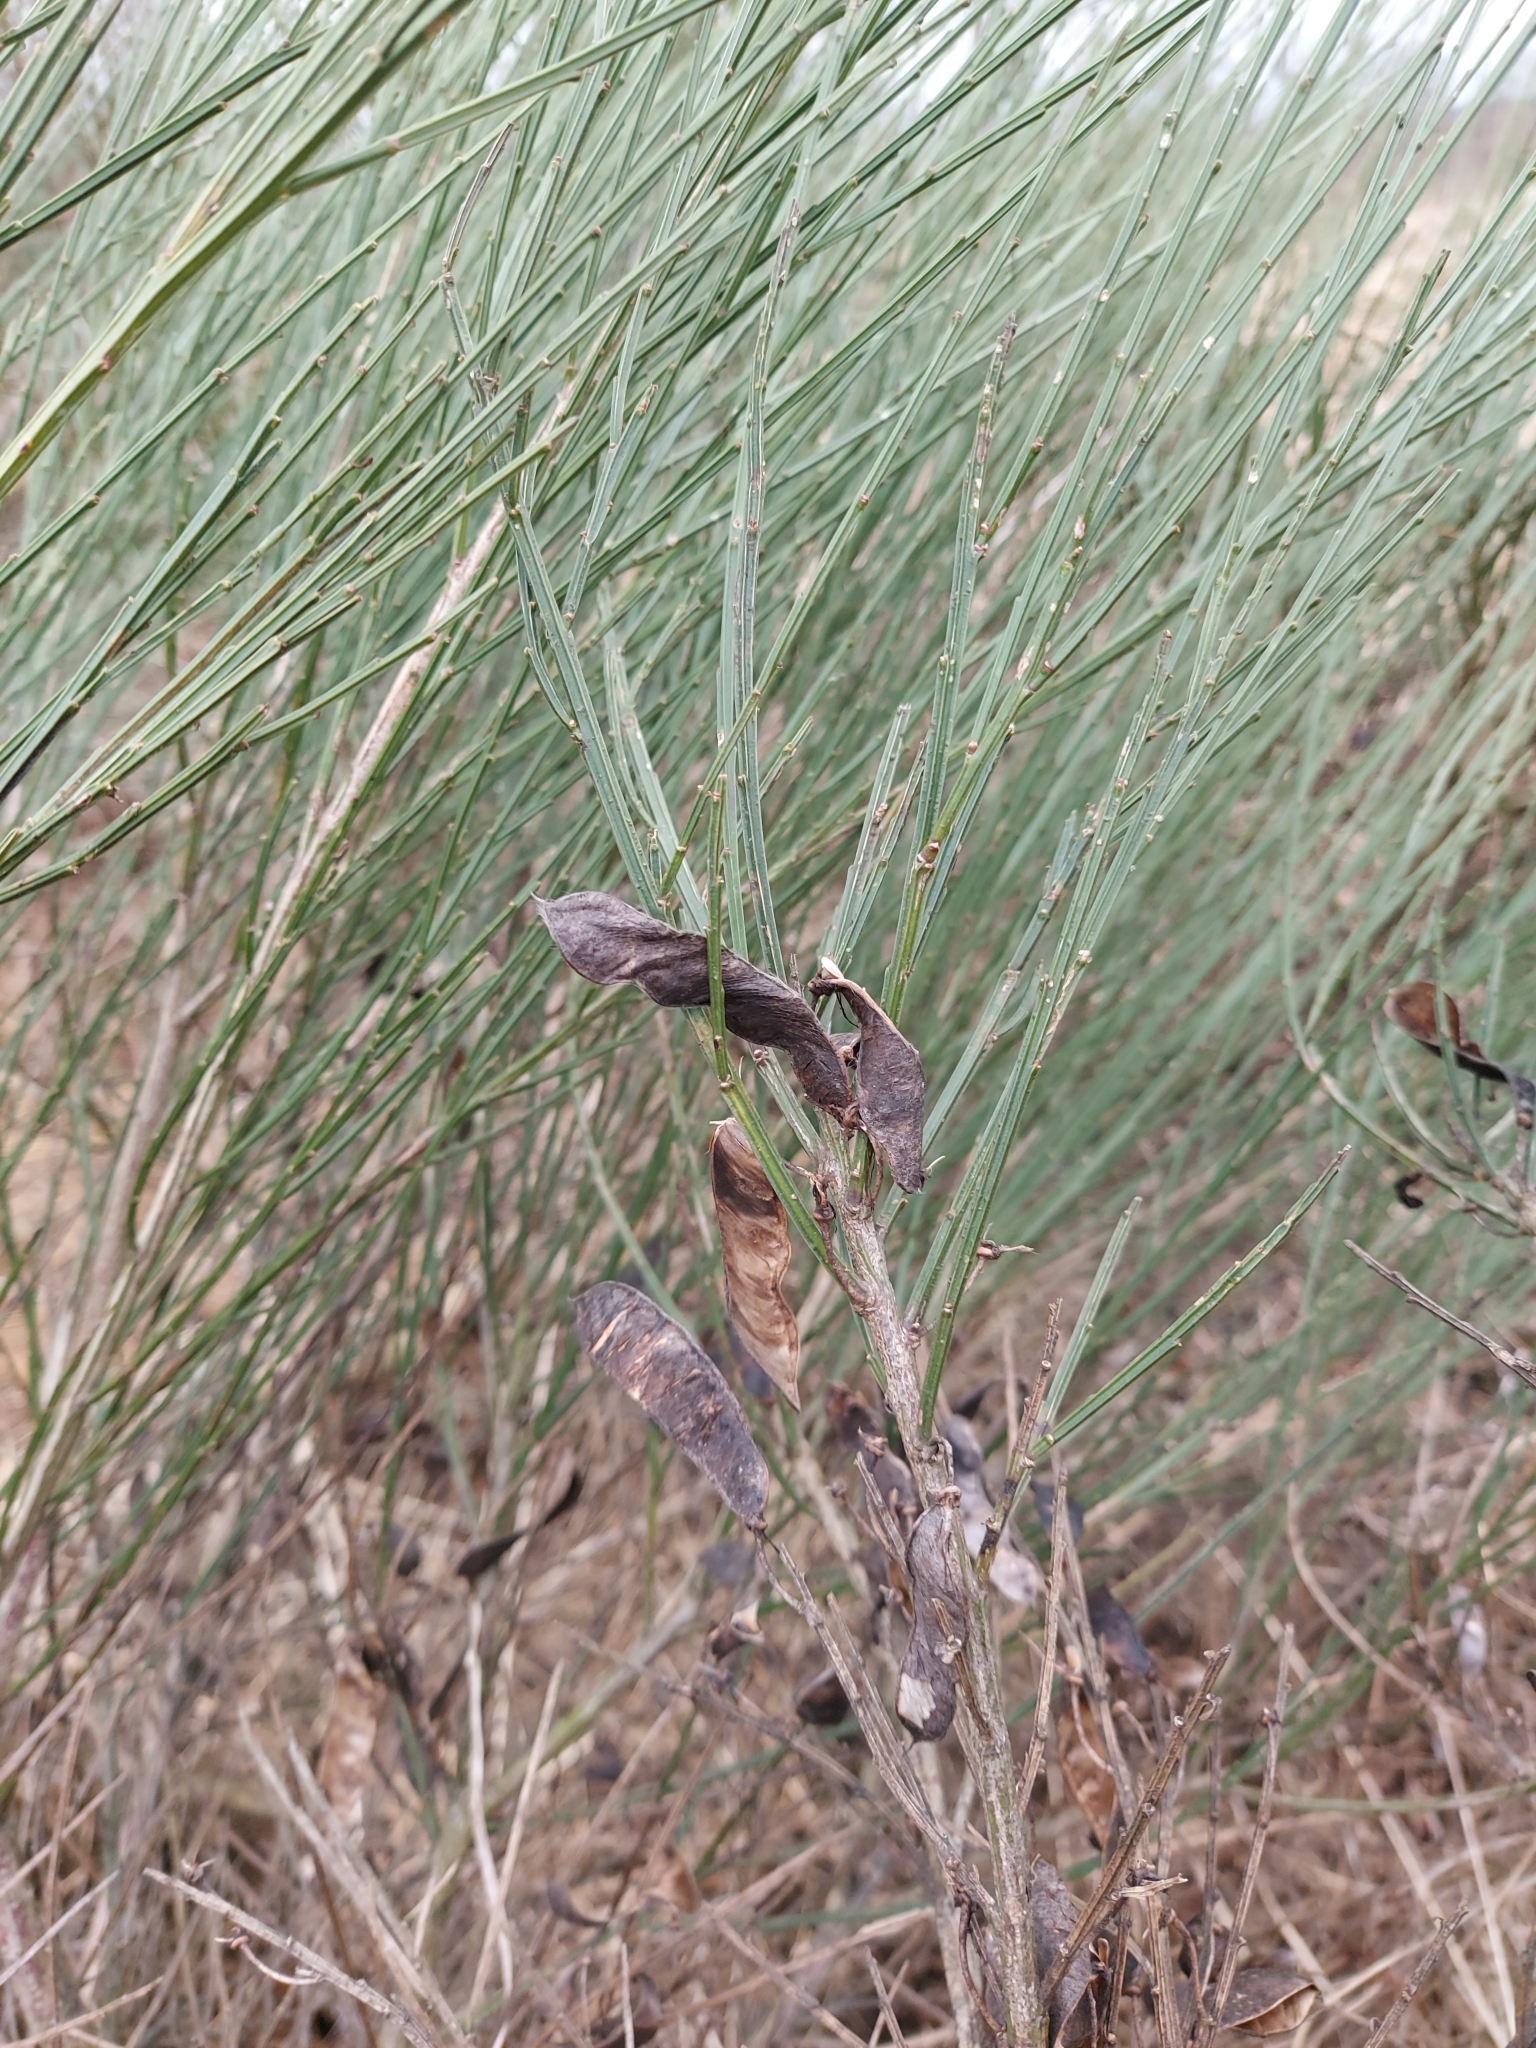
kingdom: Plantae
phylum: Tracheophyta
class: Magnoliopsida
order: Fabales
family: Fabaceae
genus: Cytisus
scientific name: Cytisus scoparius
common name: Scotch broom
